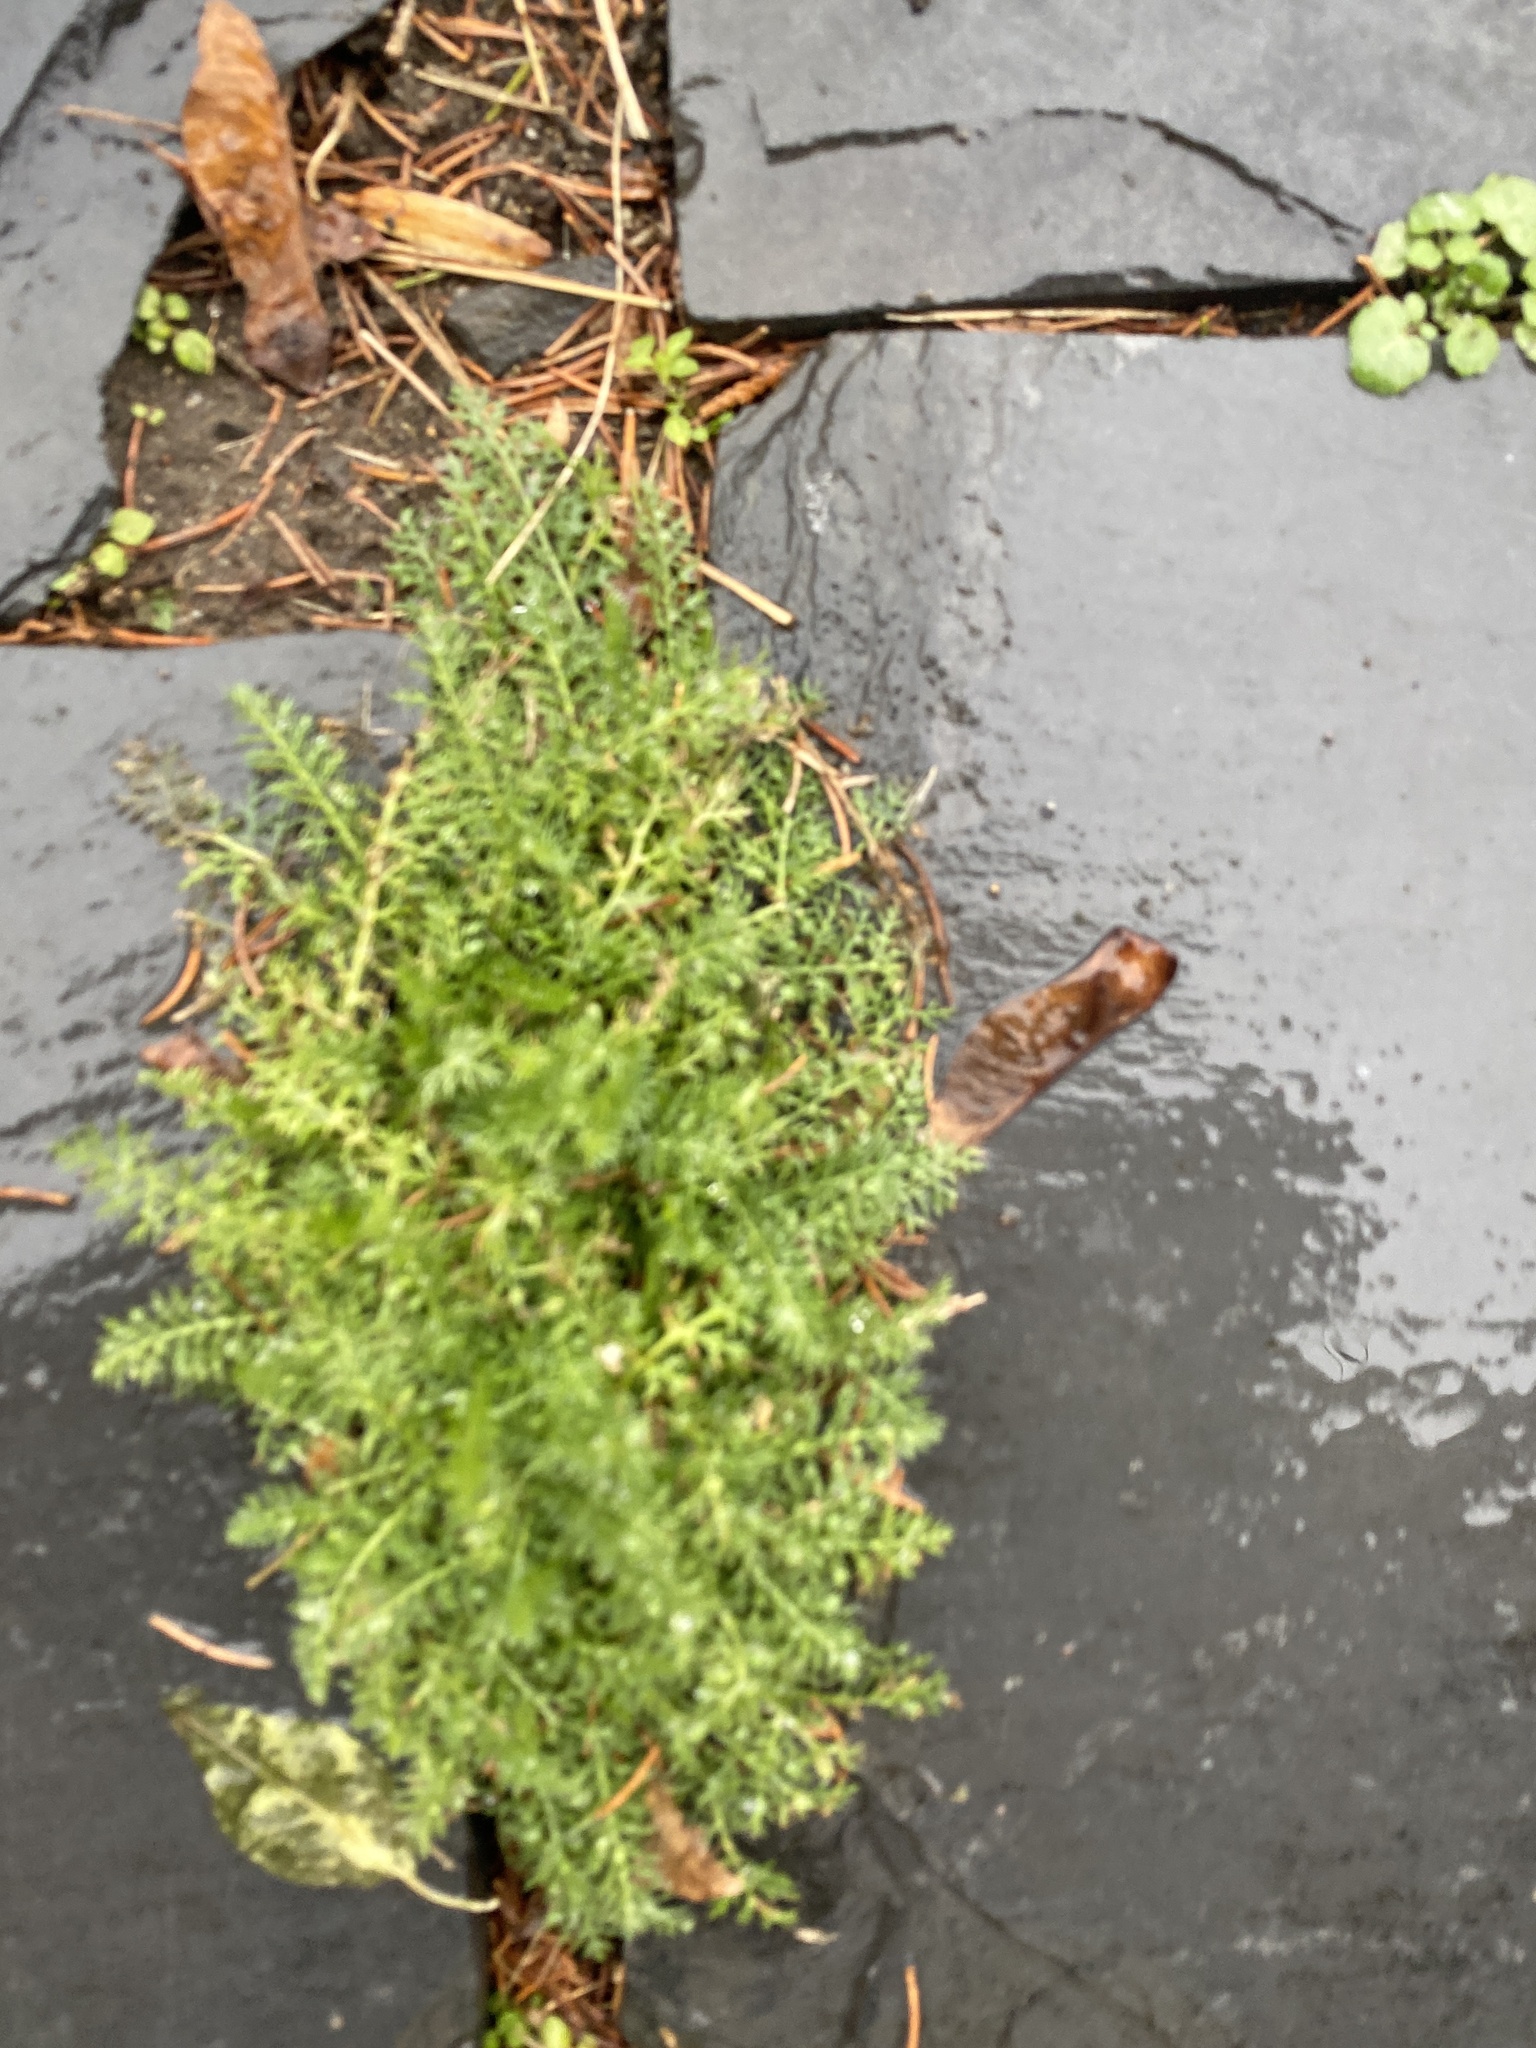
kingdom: Plantae
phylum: Tracheophyta
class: Magnoliopsida
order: Asterales
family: Asteraceae
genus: Achillea
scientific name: Achillea millefolium
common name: Yarrow
